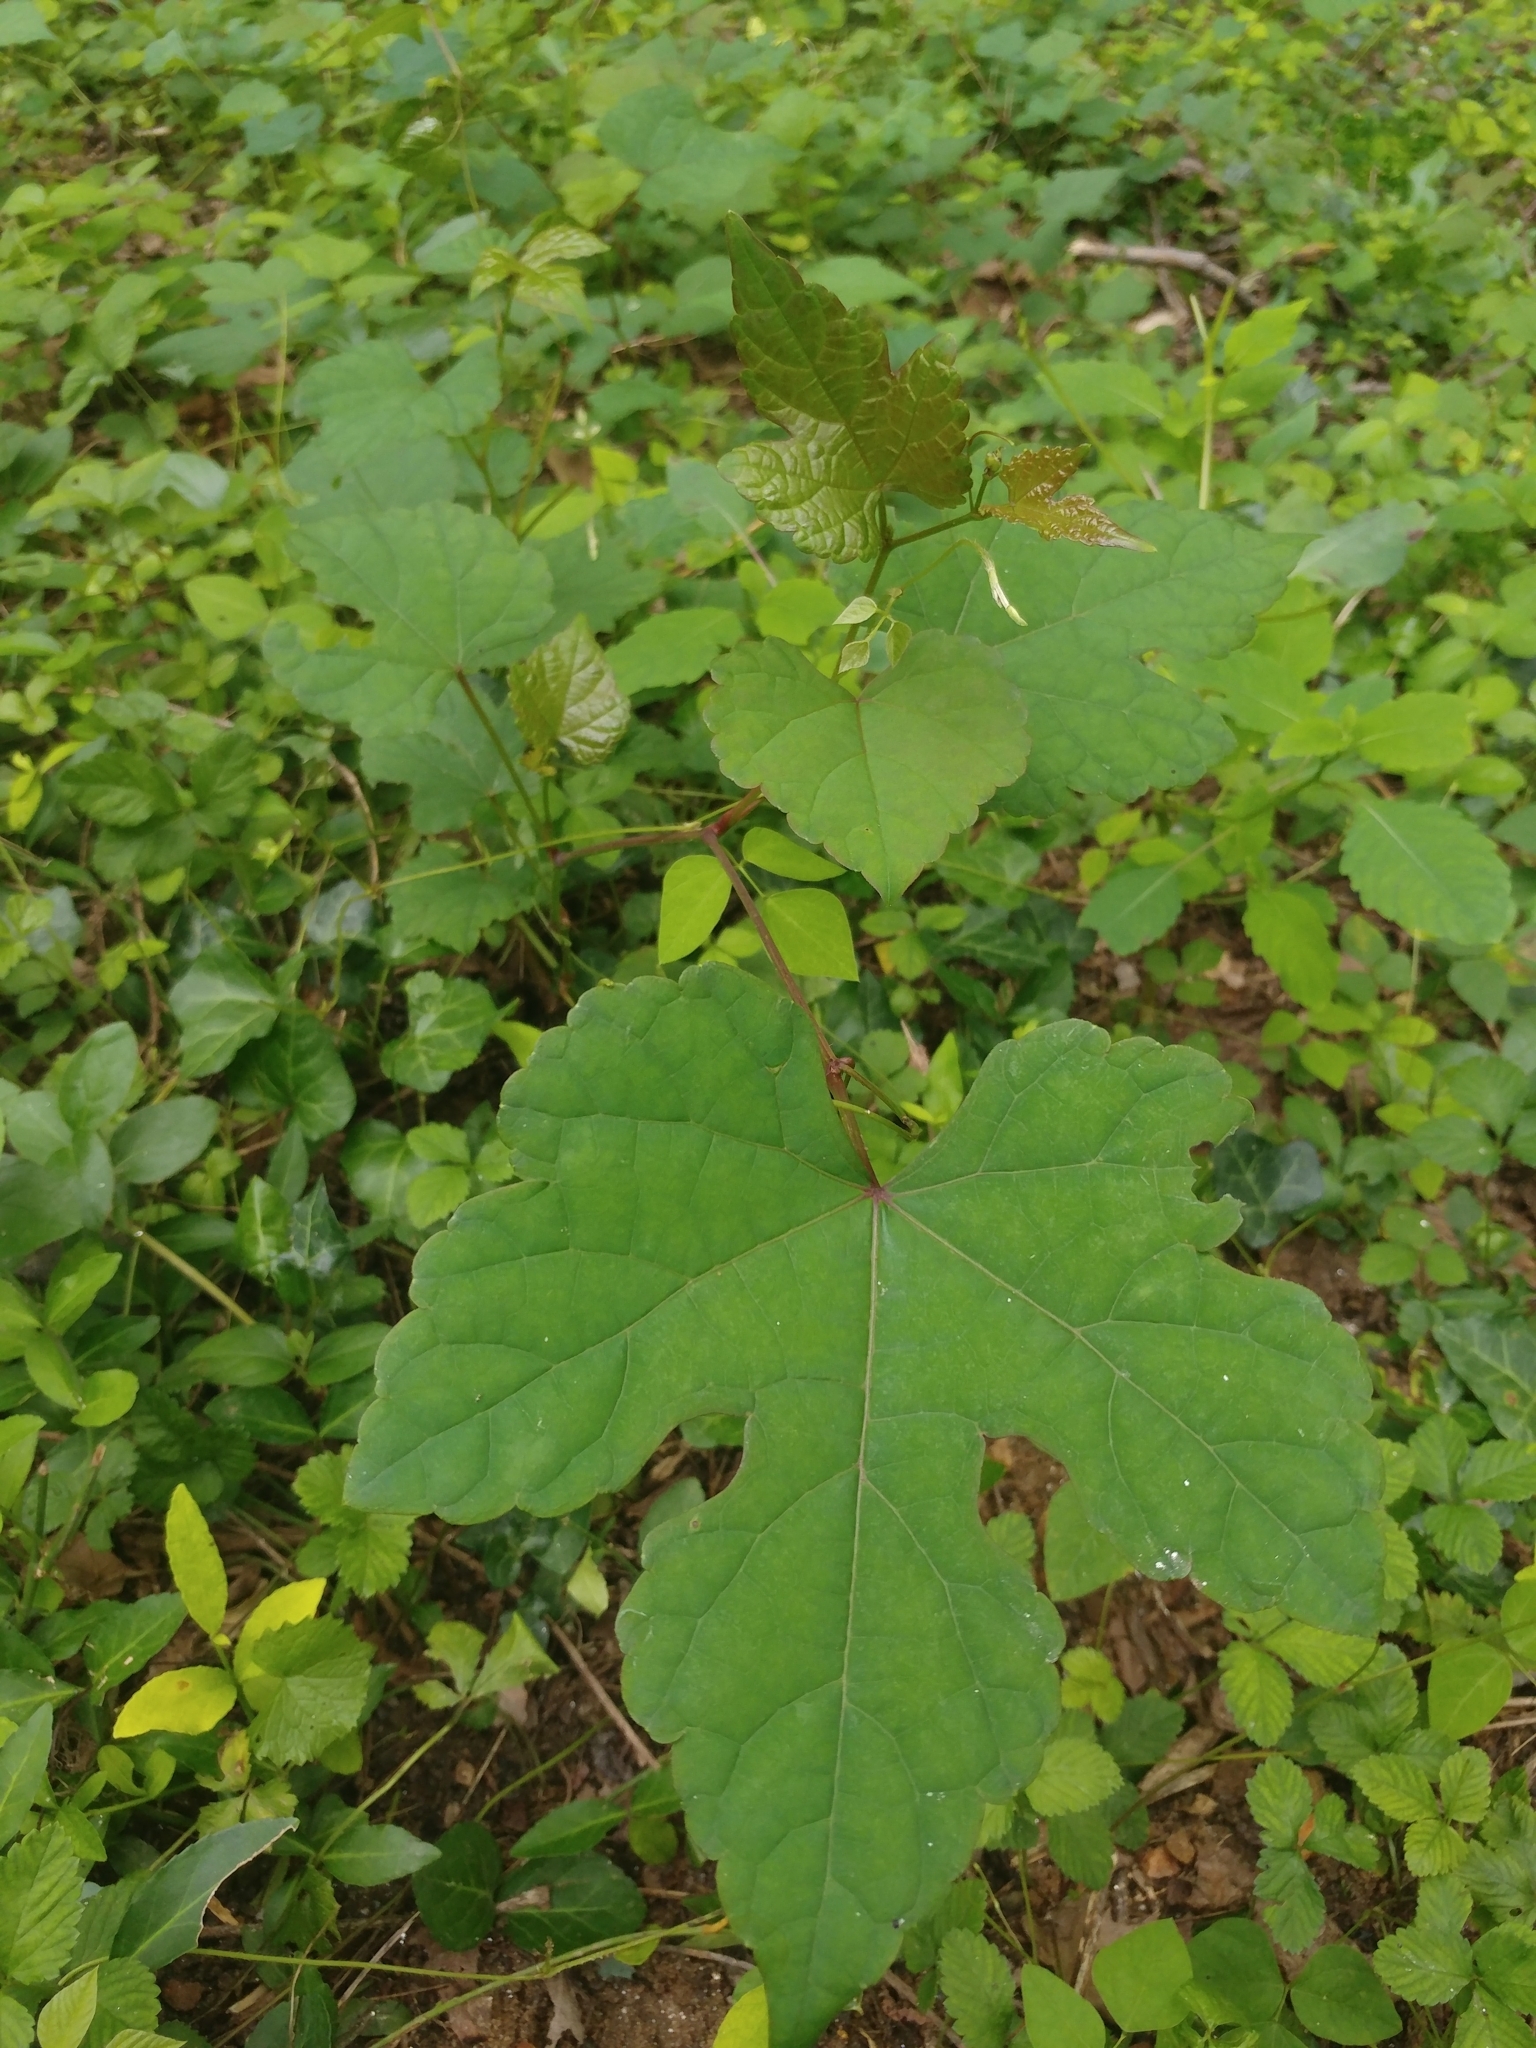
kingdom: Plantae
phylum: Tracheophyta
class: Magnoliopsida
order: Vitales
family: Vitaceae
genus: Ampelopsis
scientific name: Ampelopsis glandulosa
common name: Amur peppervine
